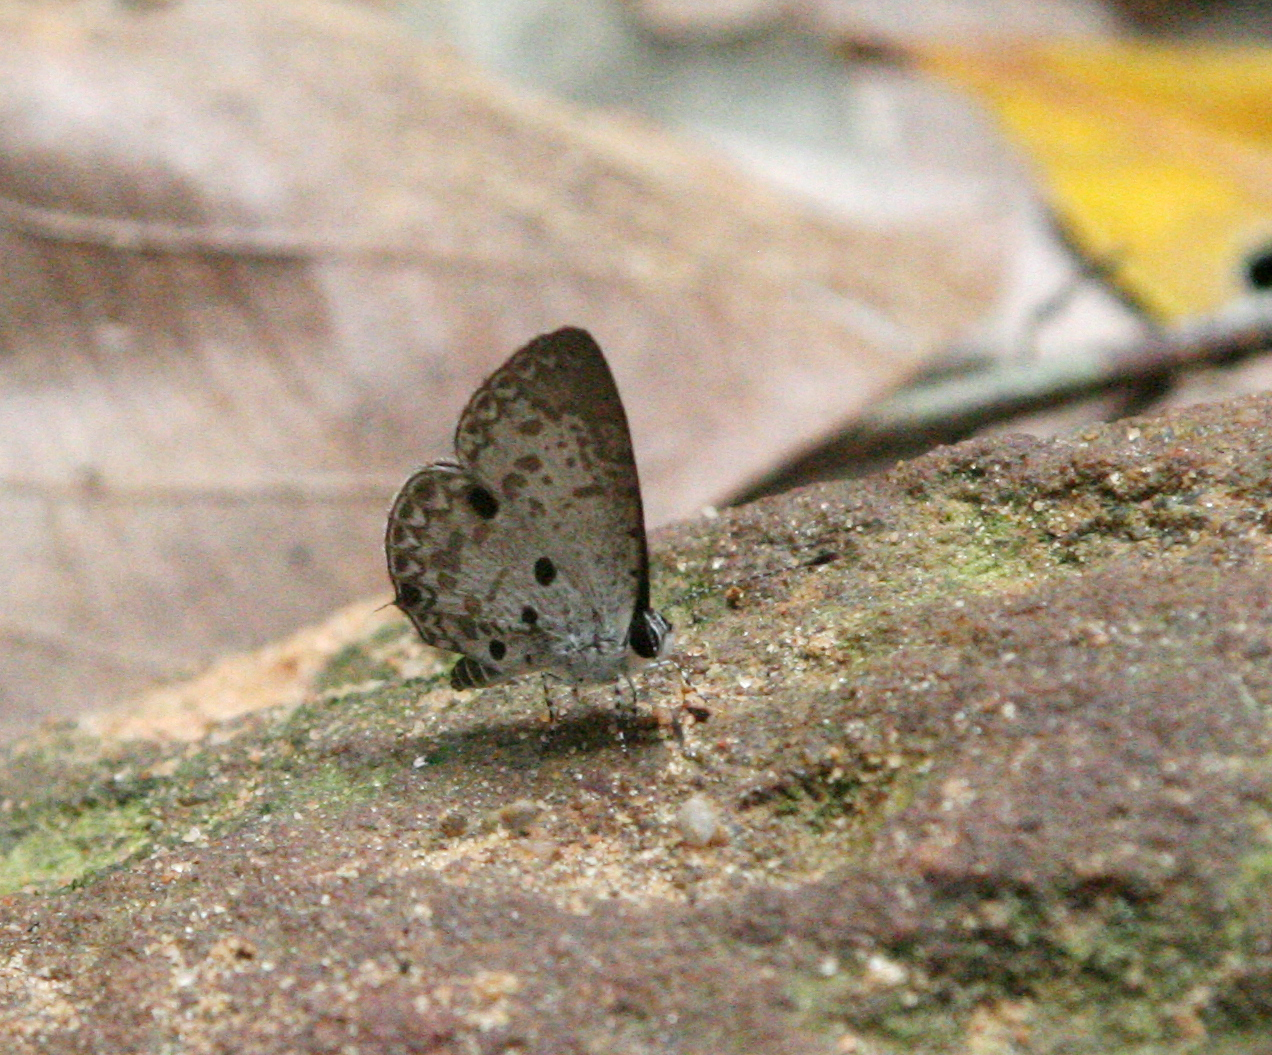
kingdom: Animalia
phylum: Arthropoda
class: Insecta
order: Lepidoptera
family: Lycaenidae
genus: Megisba
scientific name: Megisba malaya
